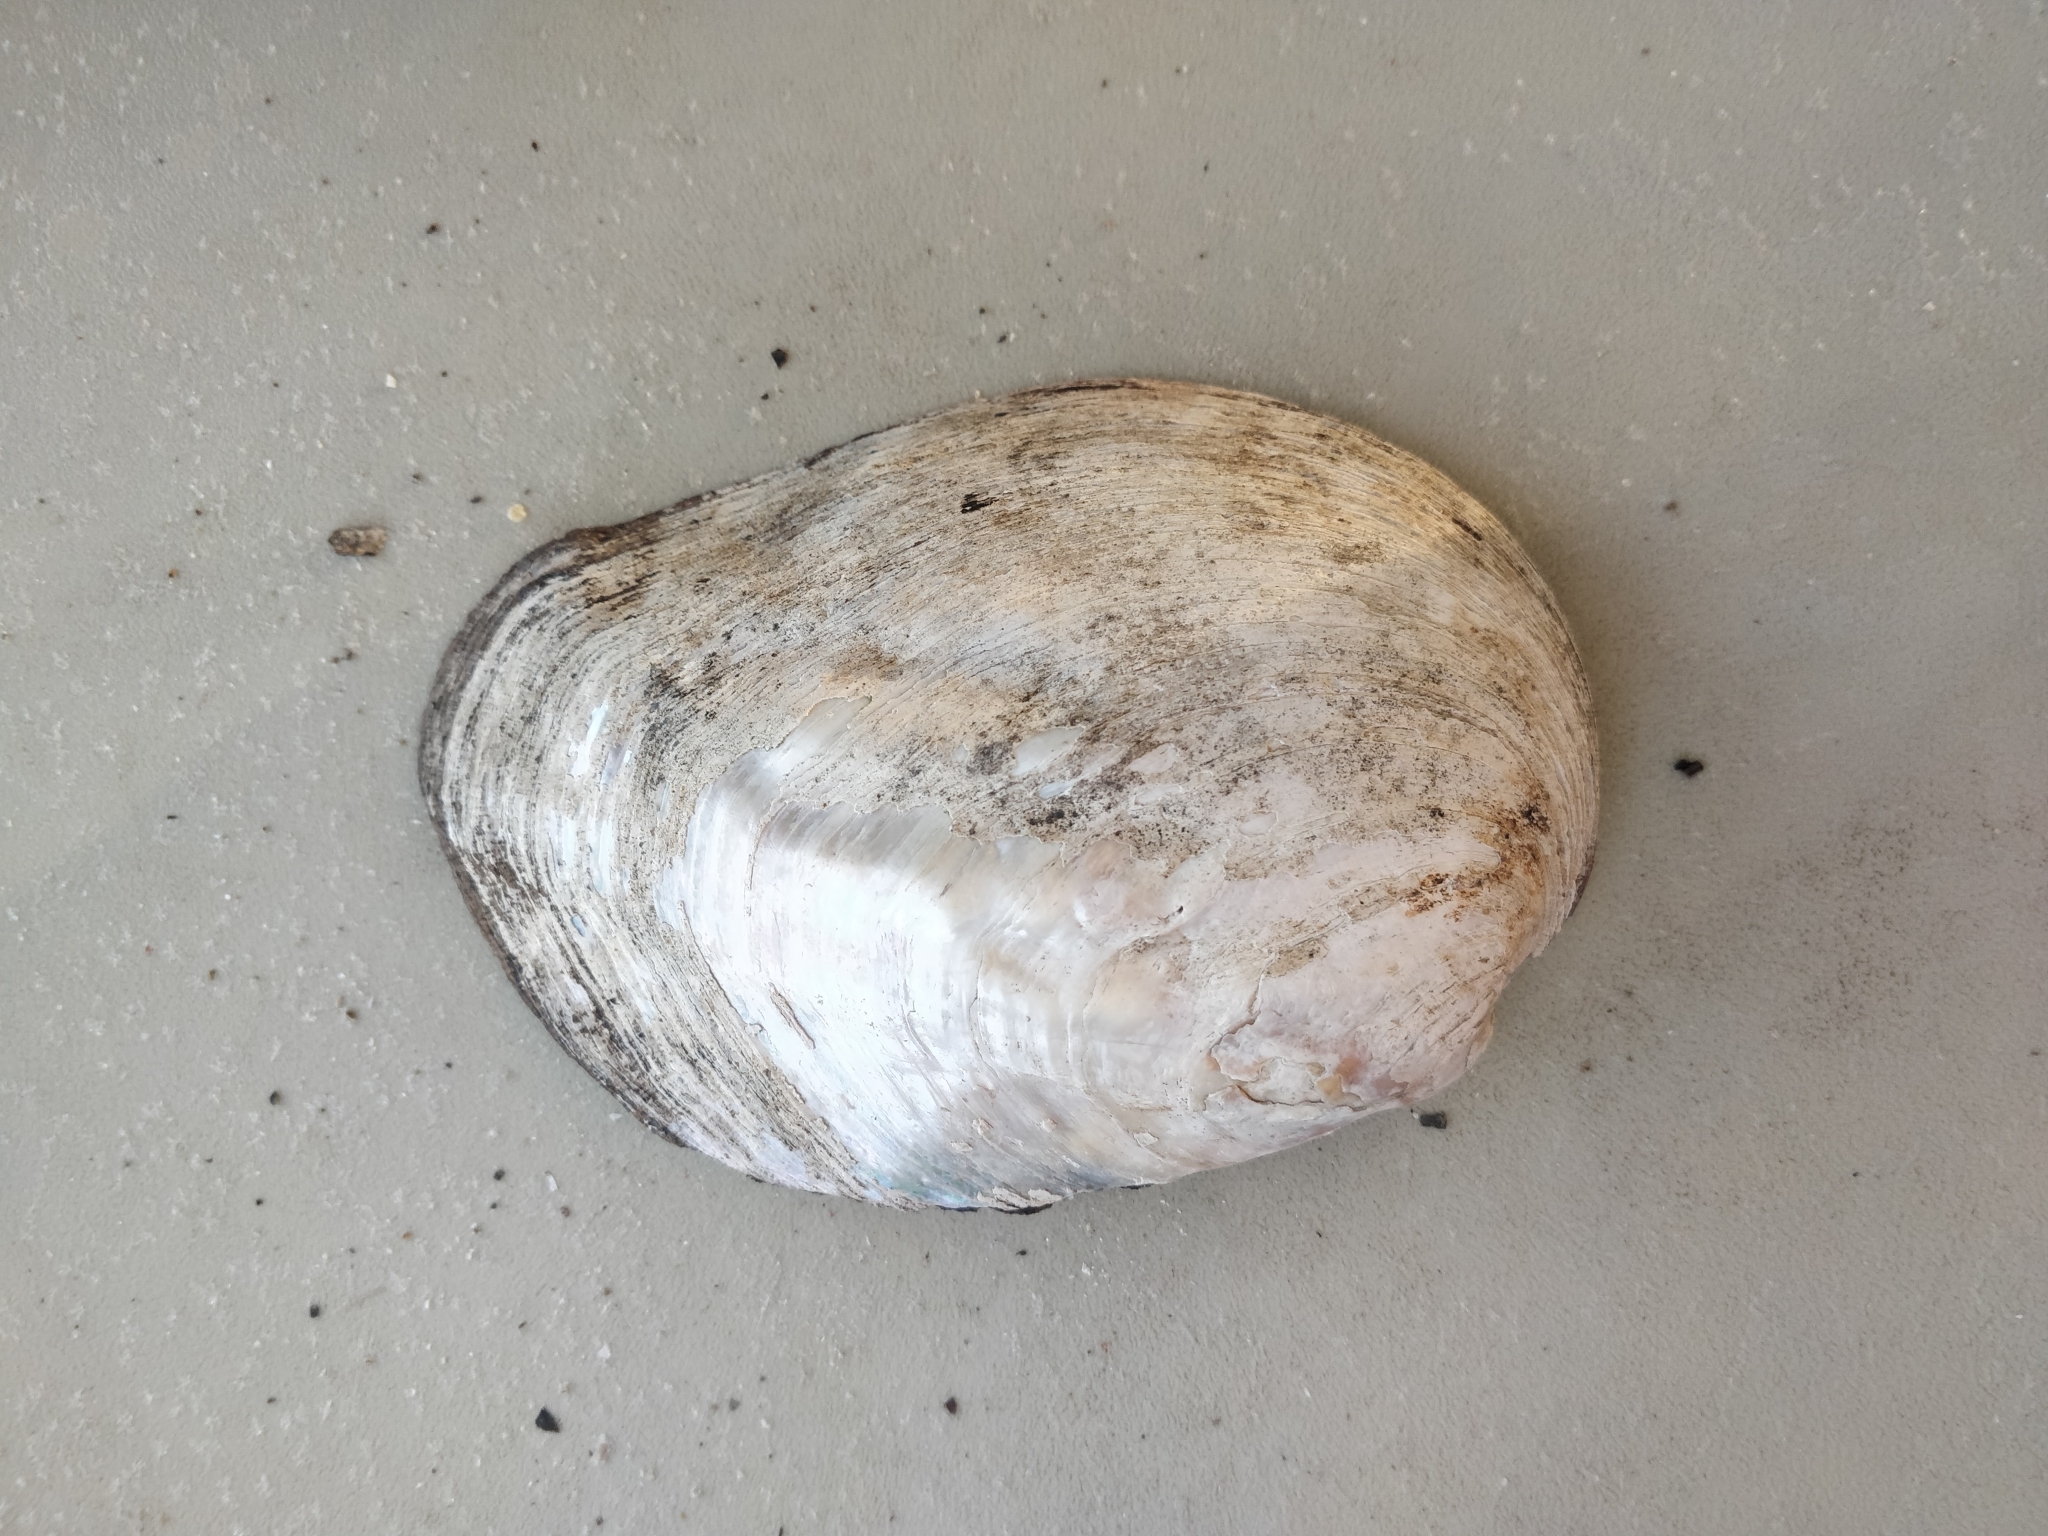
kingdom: Animalia
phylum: Mollusca
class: Bivalvia
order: Unionida
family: Unionidae
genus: Amblema
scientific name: Amblema plicata
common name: Threeridge
